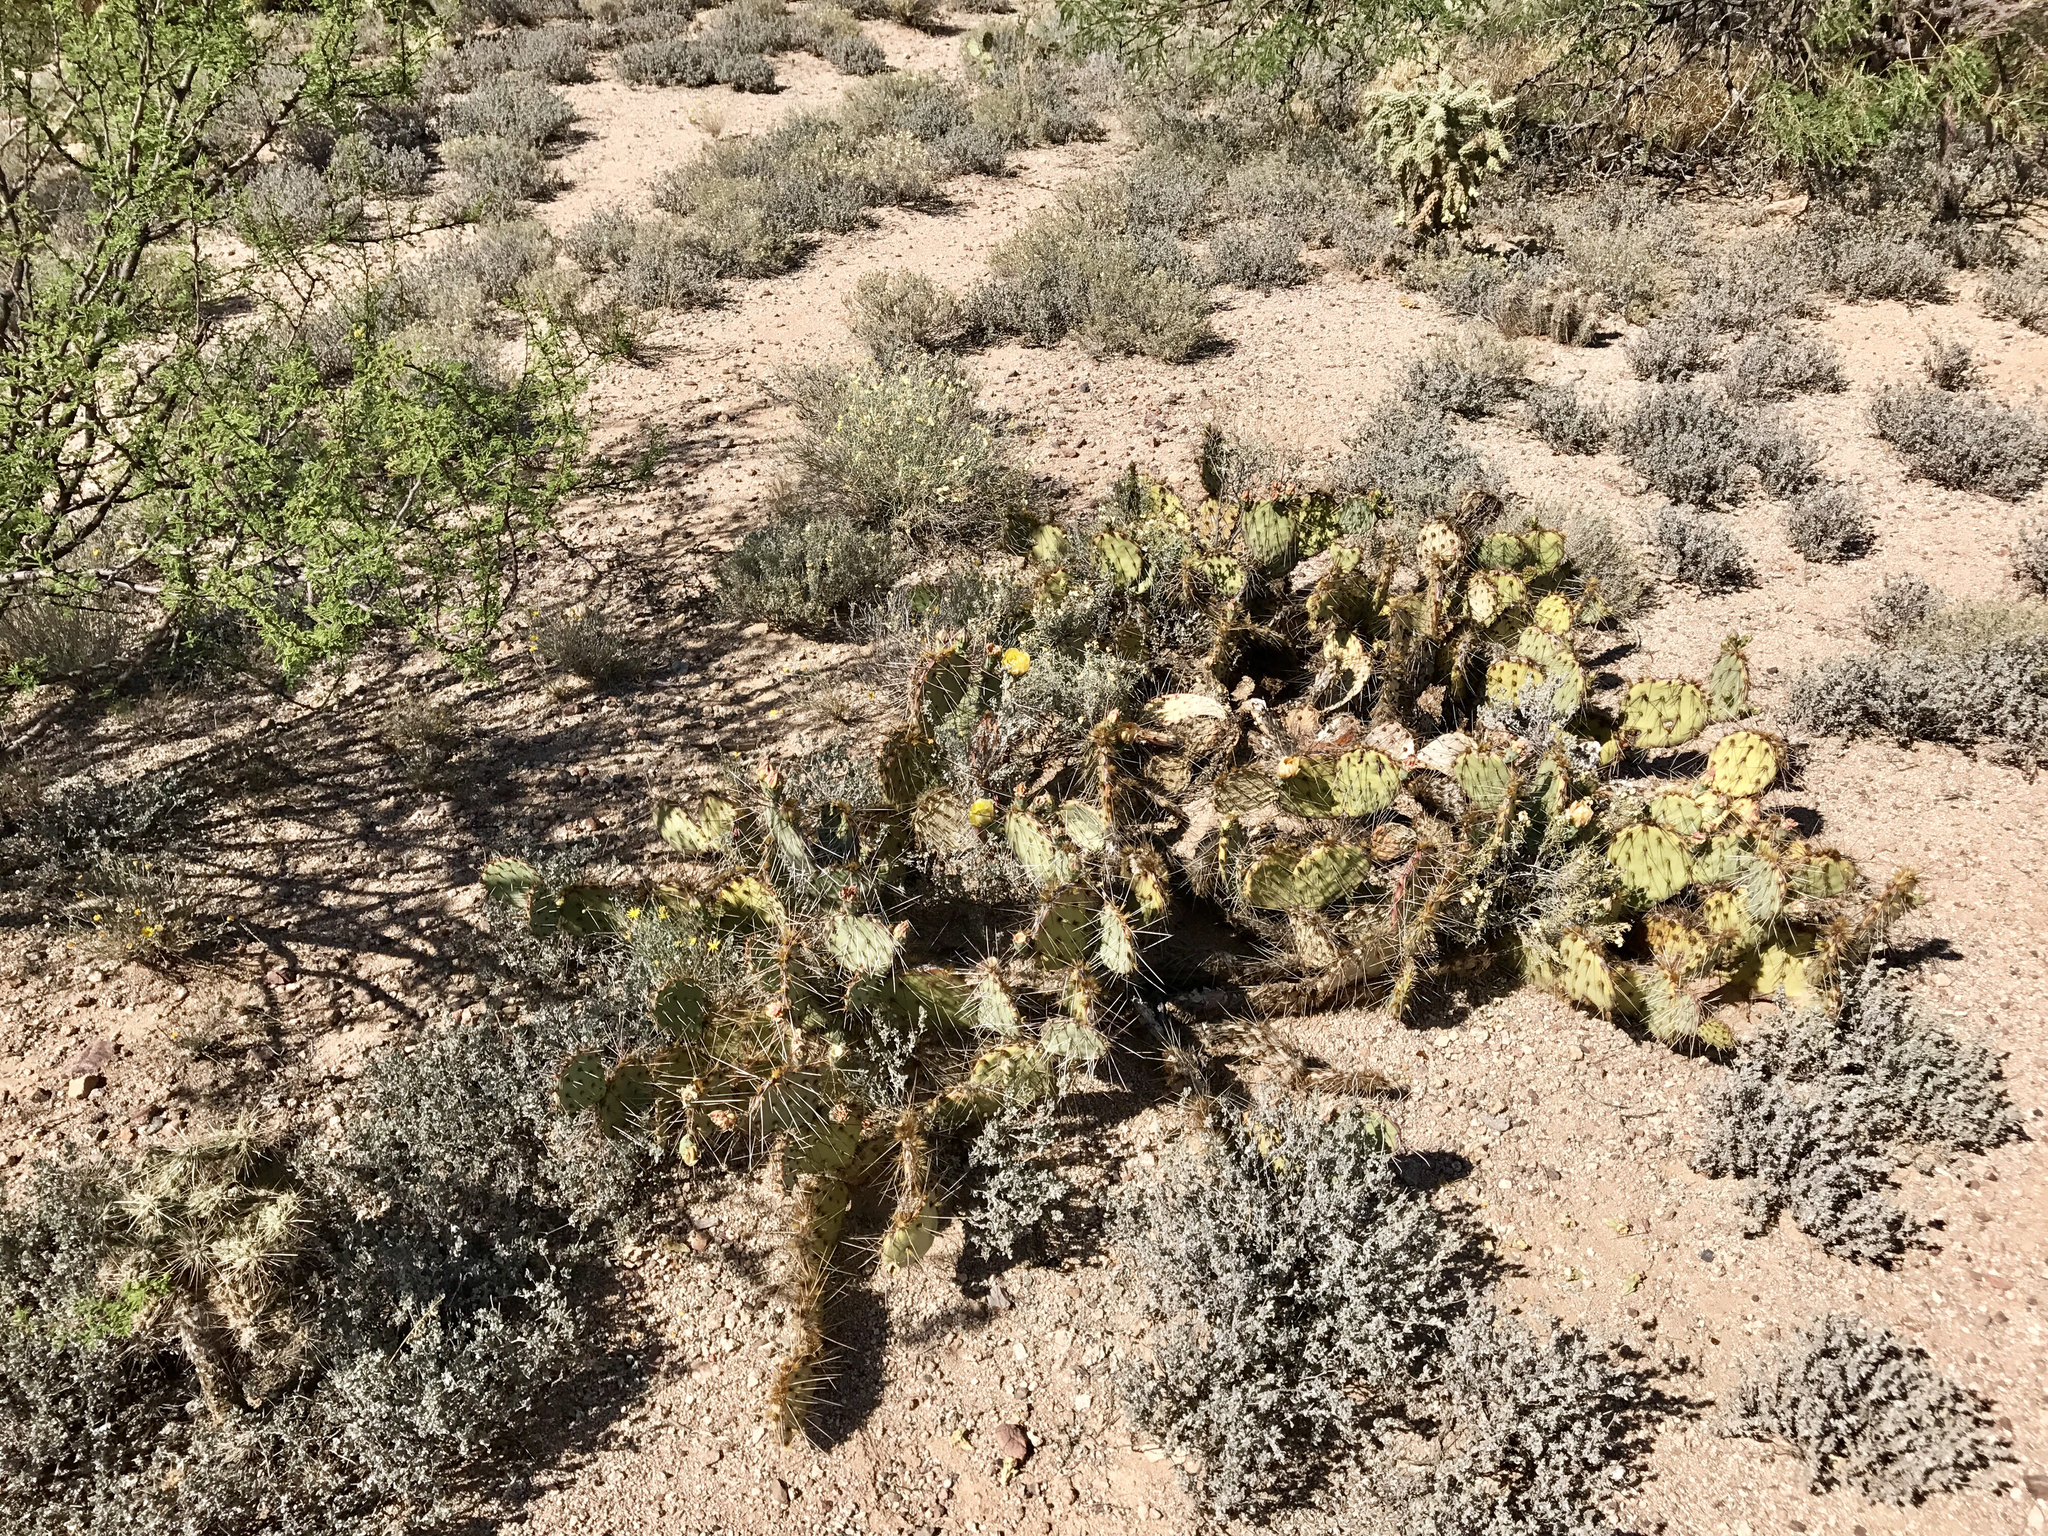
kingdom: Plantae
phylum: Tracheophyta
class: Magnoliopsida
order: Caryophyllales
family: Cactaceae
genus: Opuntia
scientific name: Opuntia phaeacantha
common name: New mexico prickly-pear
